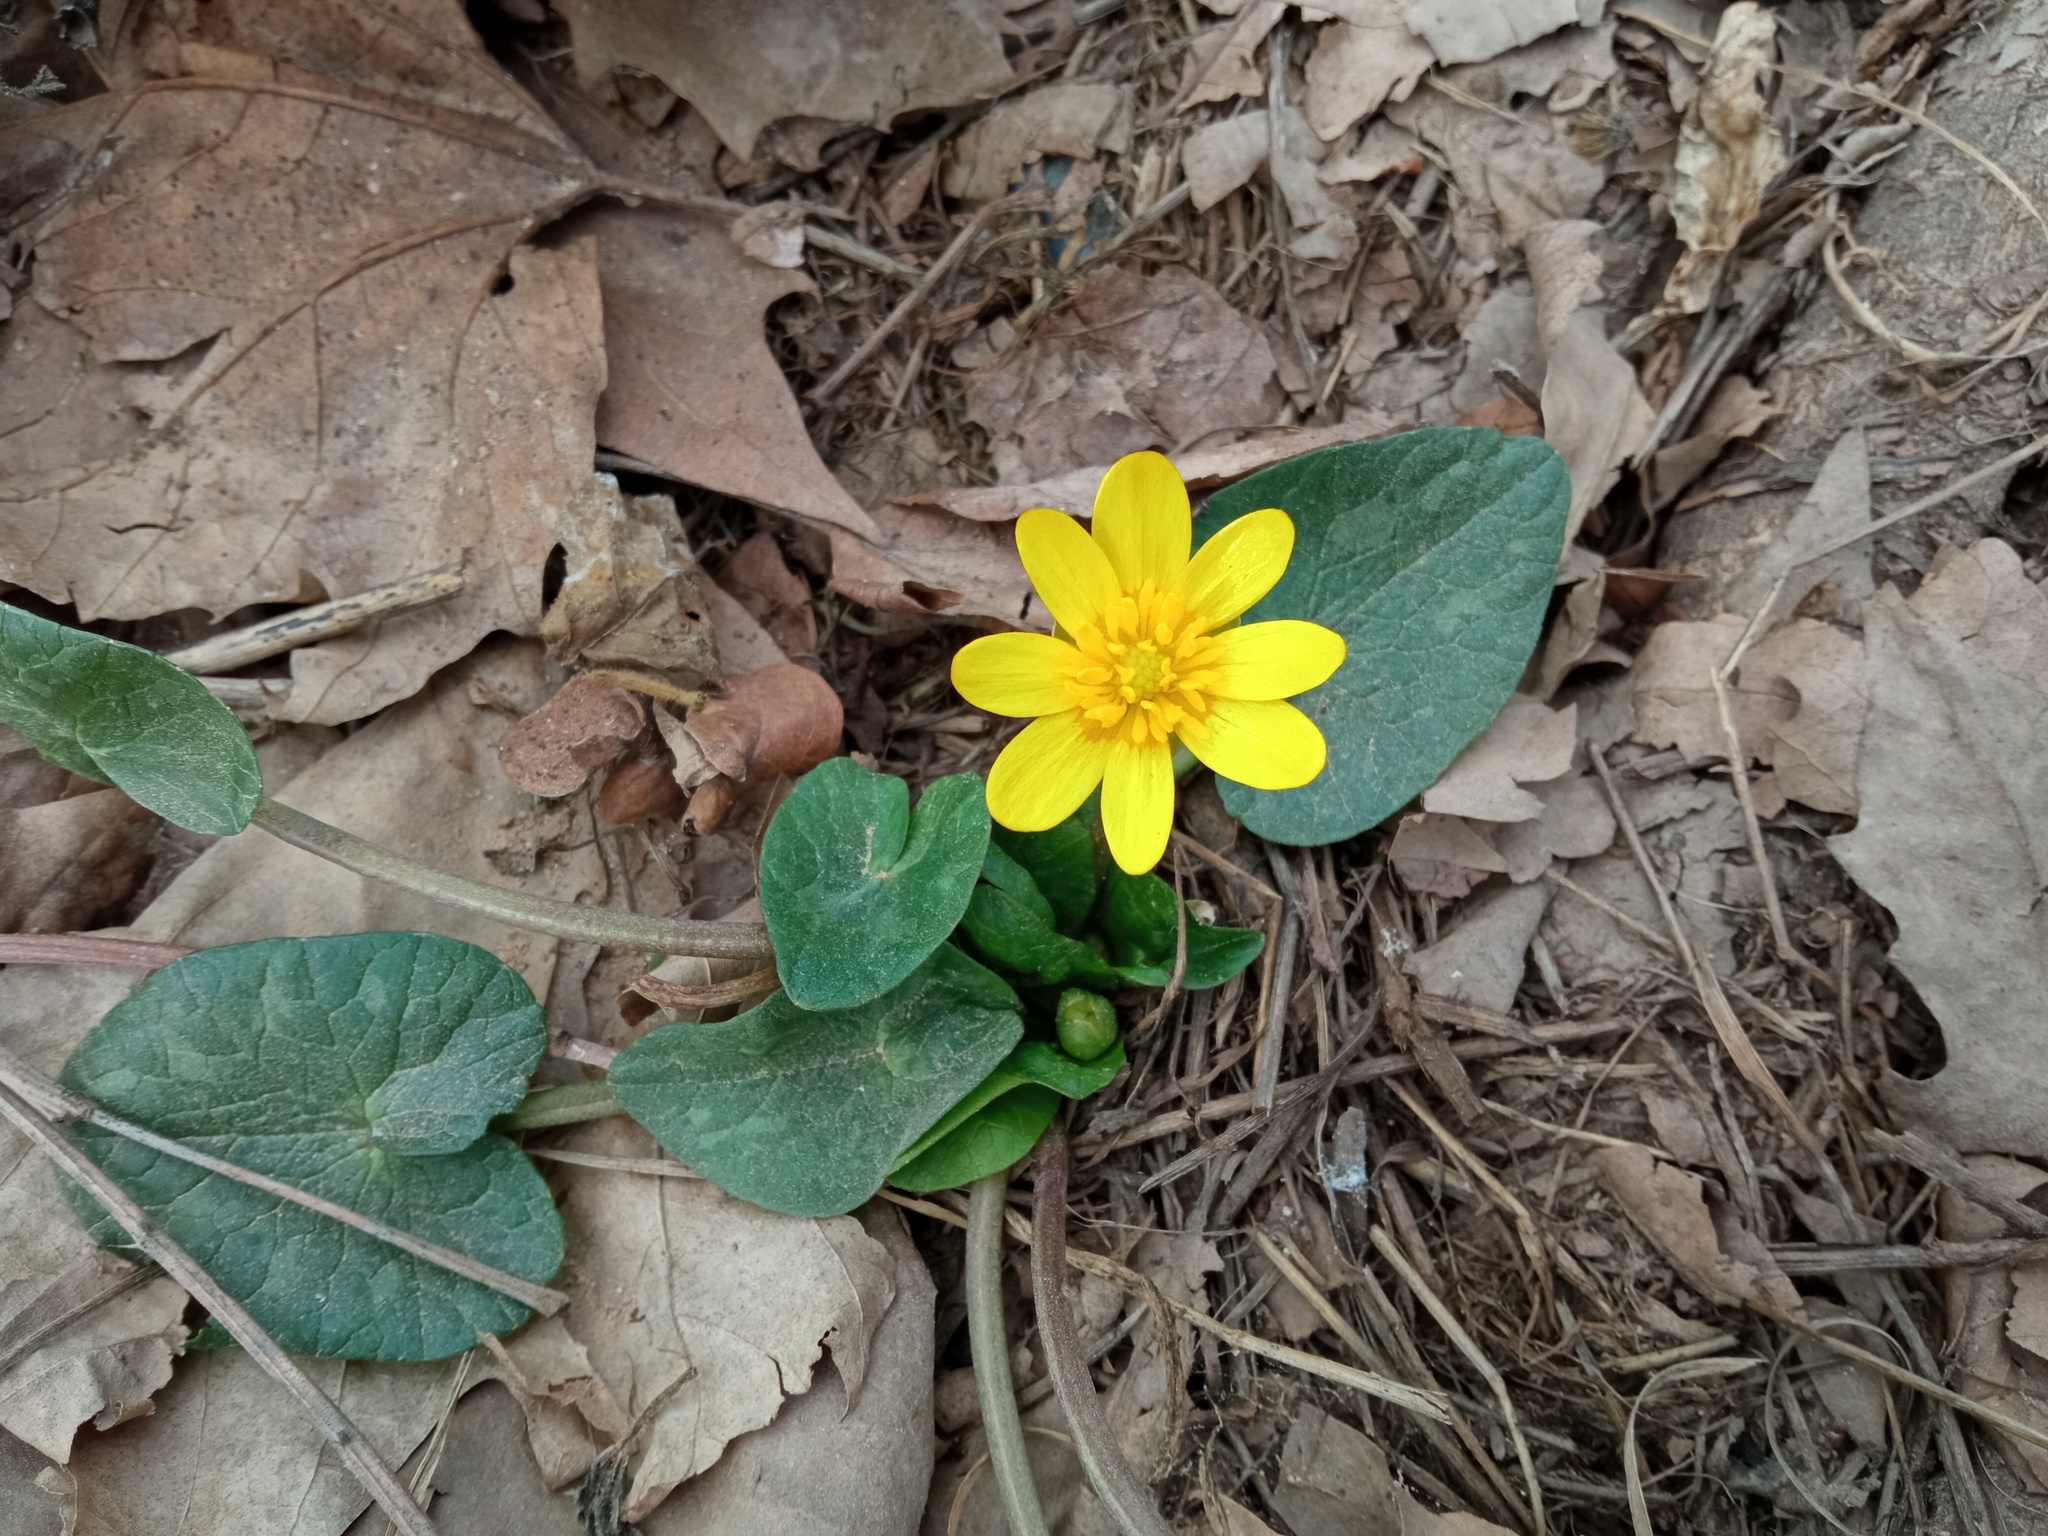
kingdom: Plantae
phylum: Tracheophyta
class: Magnoliopsida
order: Ranunculales
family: Ranunculaceae
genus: Ficaria
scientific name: Ficaria verna
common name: Lesser celandine
